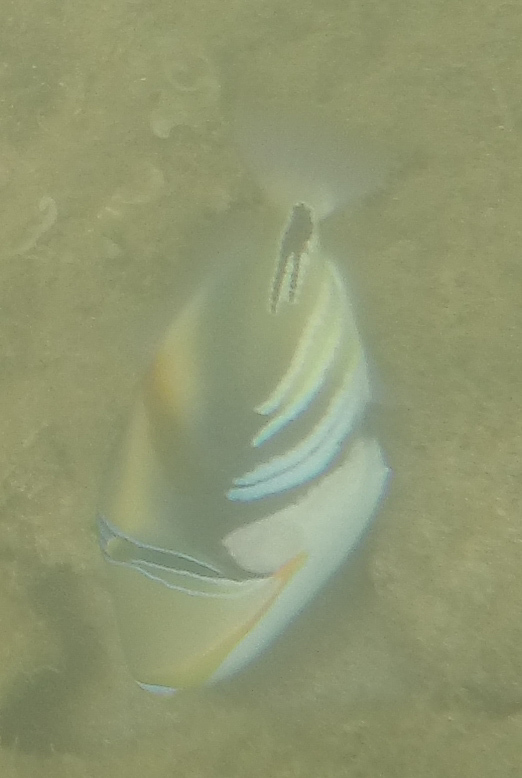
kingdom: Animalia
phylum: Chordata
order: Tetraodontiformes
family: Balistidae
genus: Rhinecanthus
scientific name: Rhinecanthus aculeatus
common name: White-banded triggerfish
